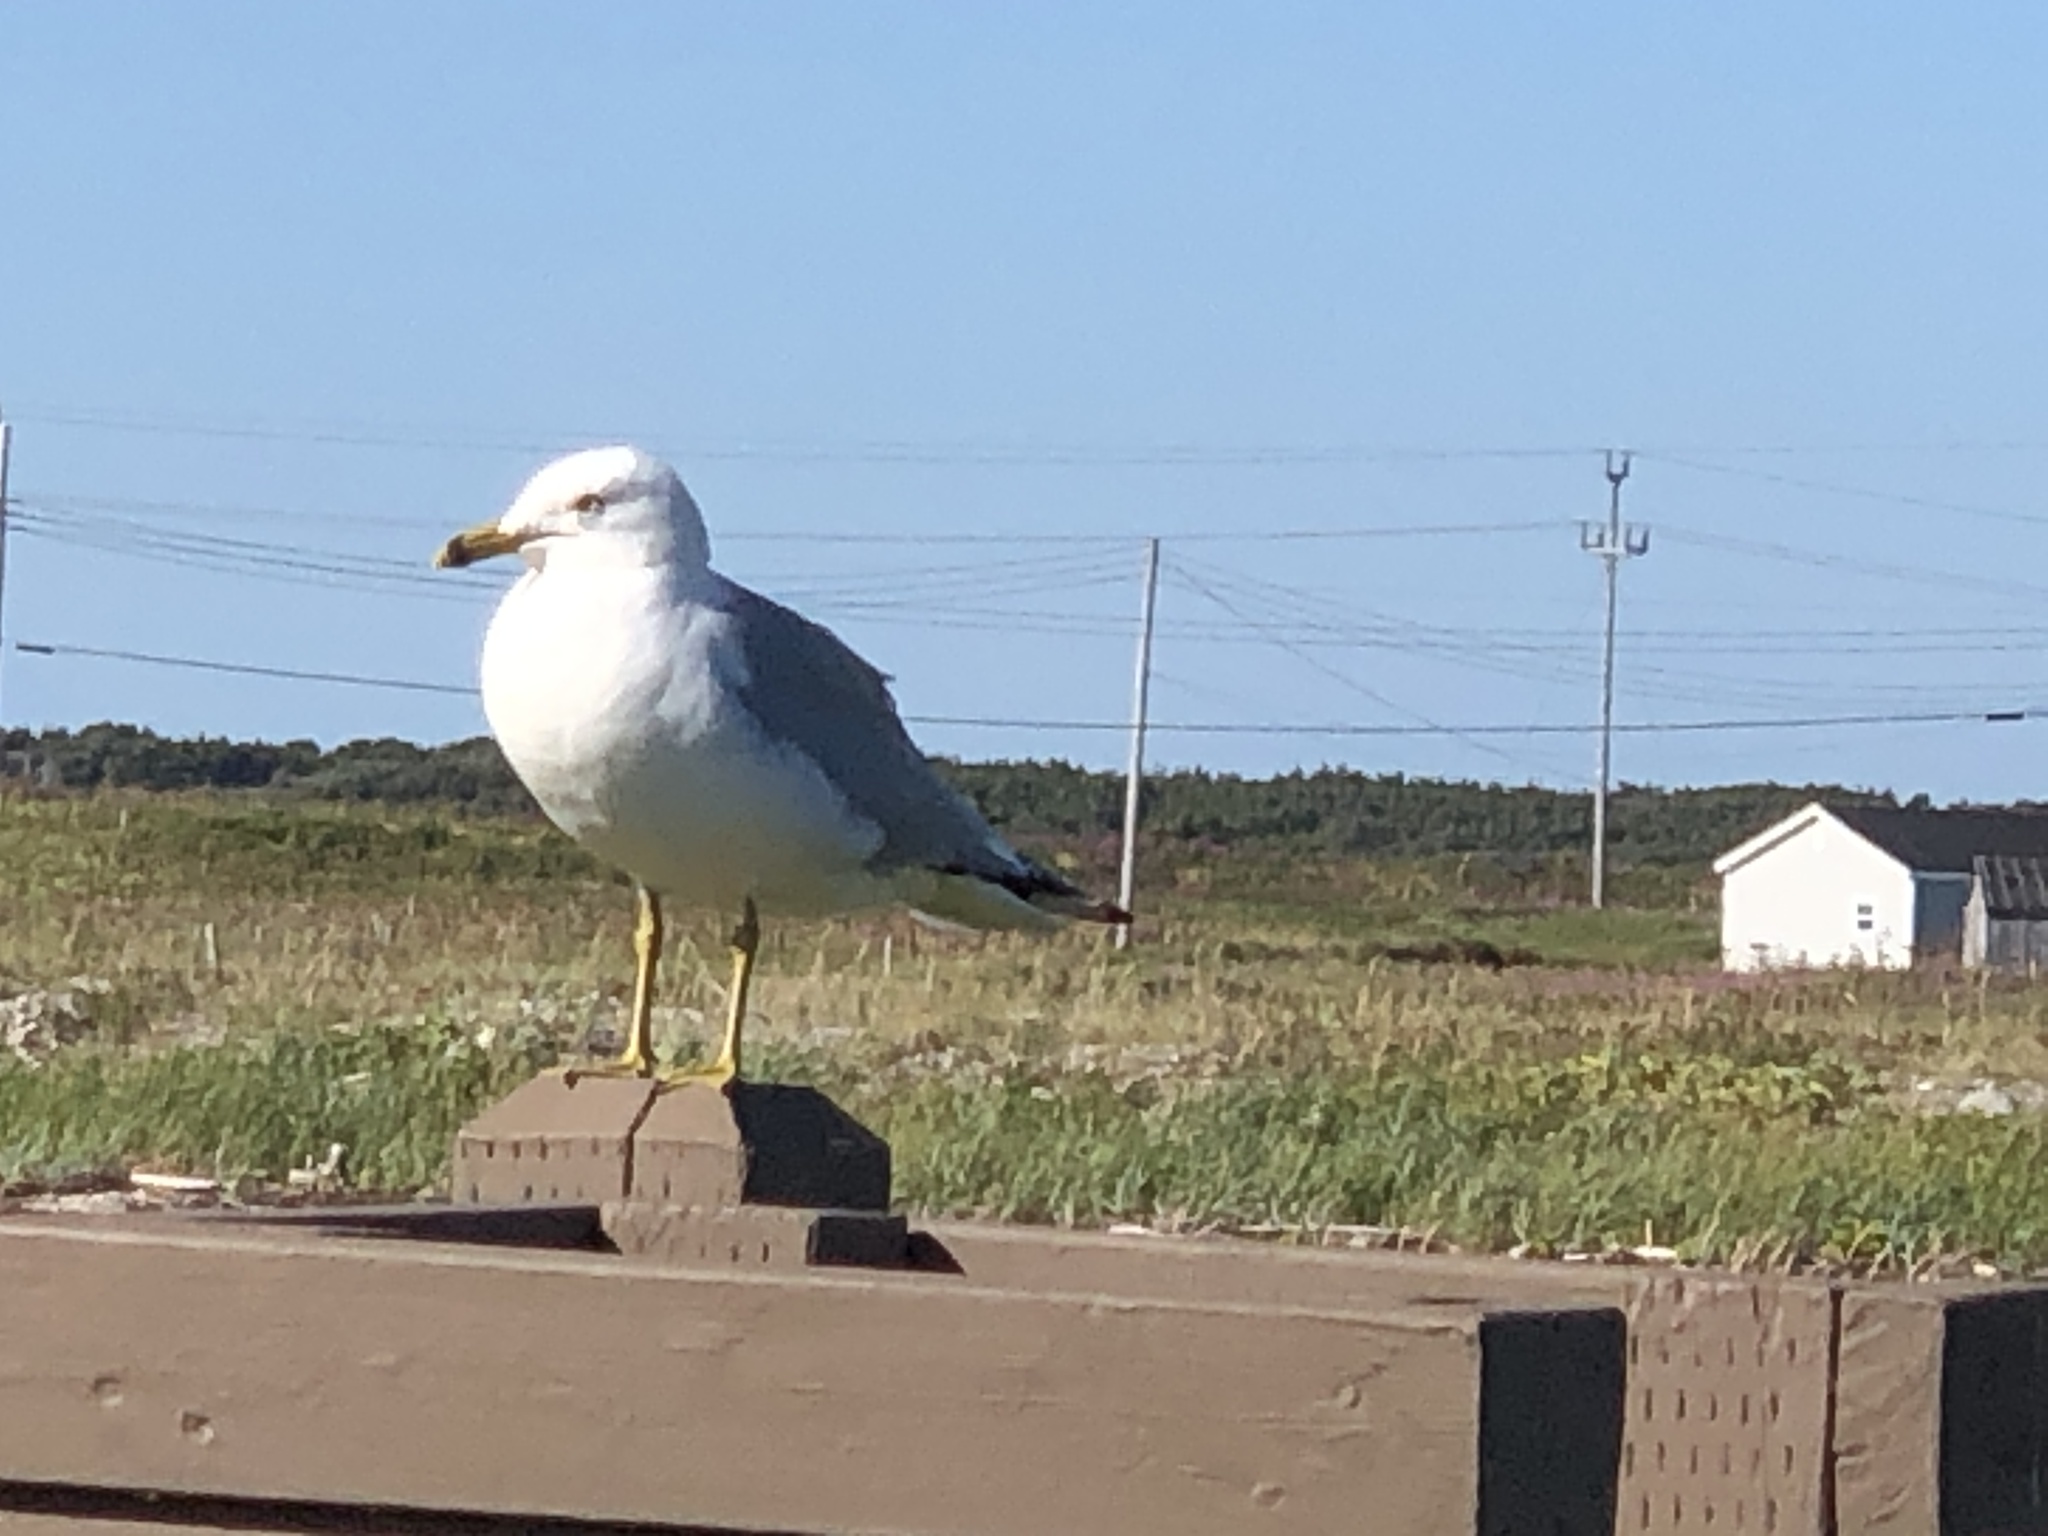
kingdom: Animalia
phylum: Chordata
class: Aves
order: Charadriiformes
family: Laridae
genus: Larus
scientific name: Larus delawarensis
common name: Ring-billed gull
